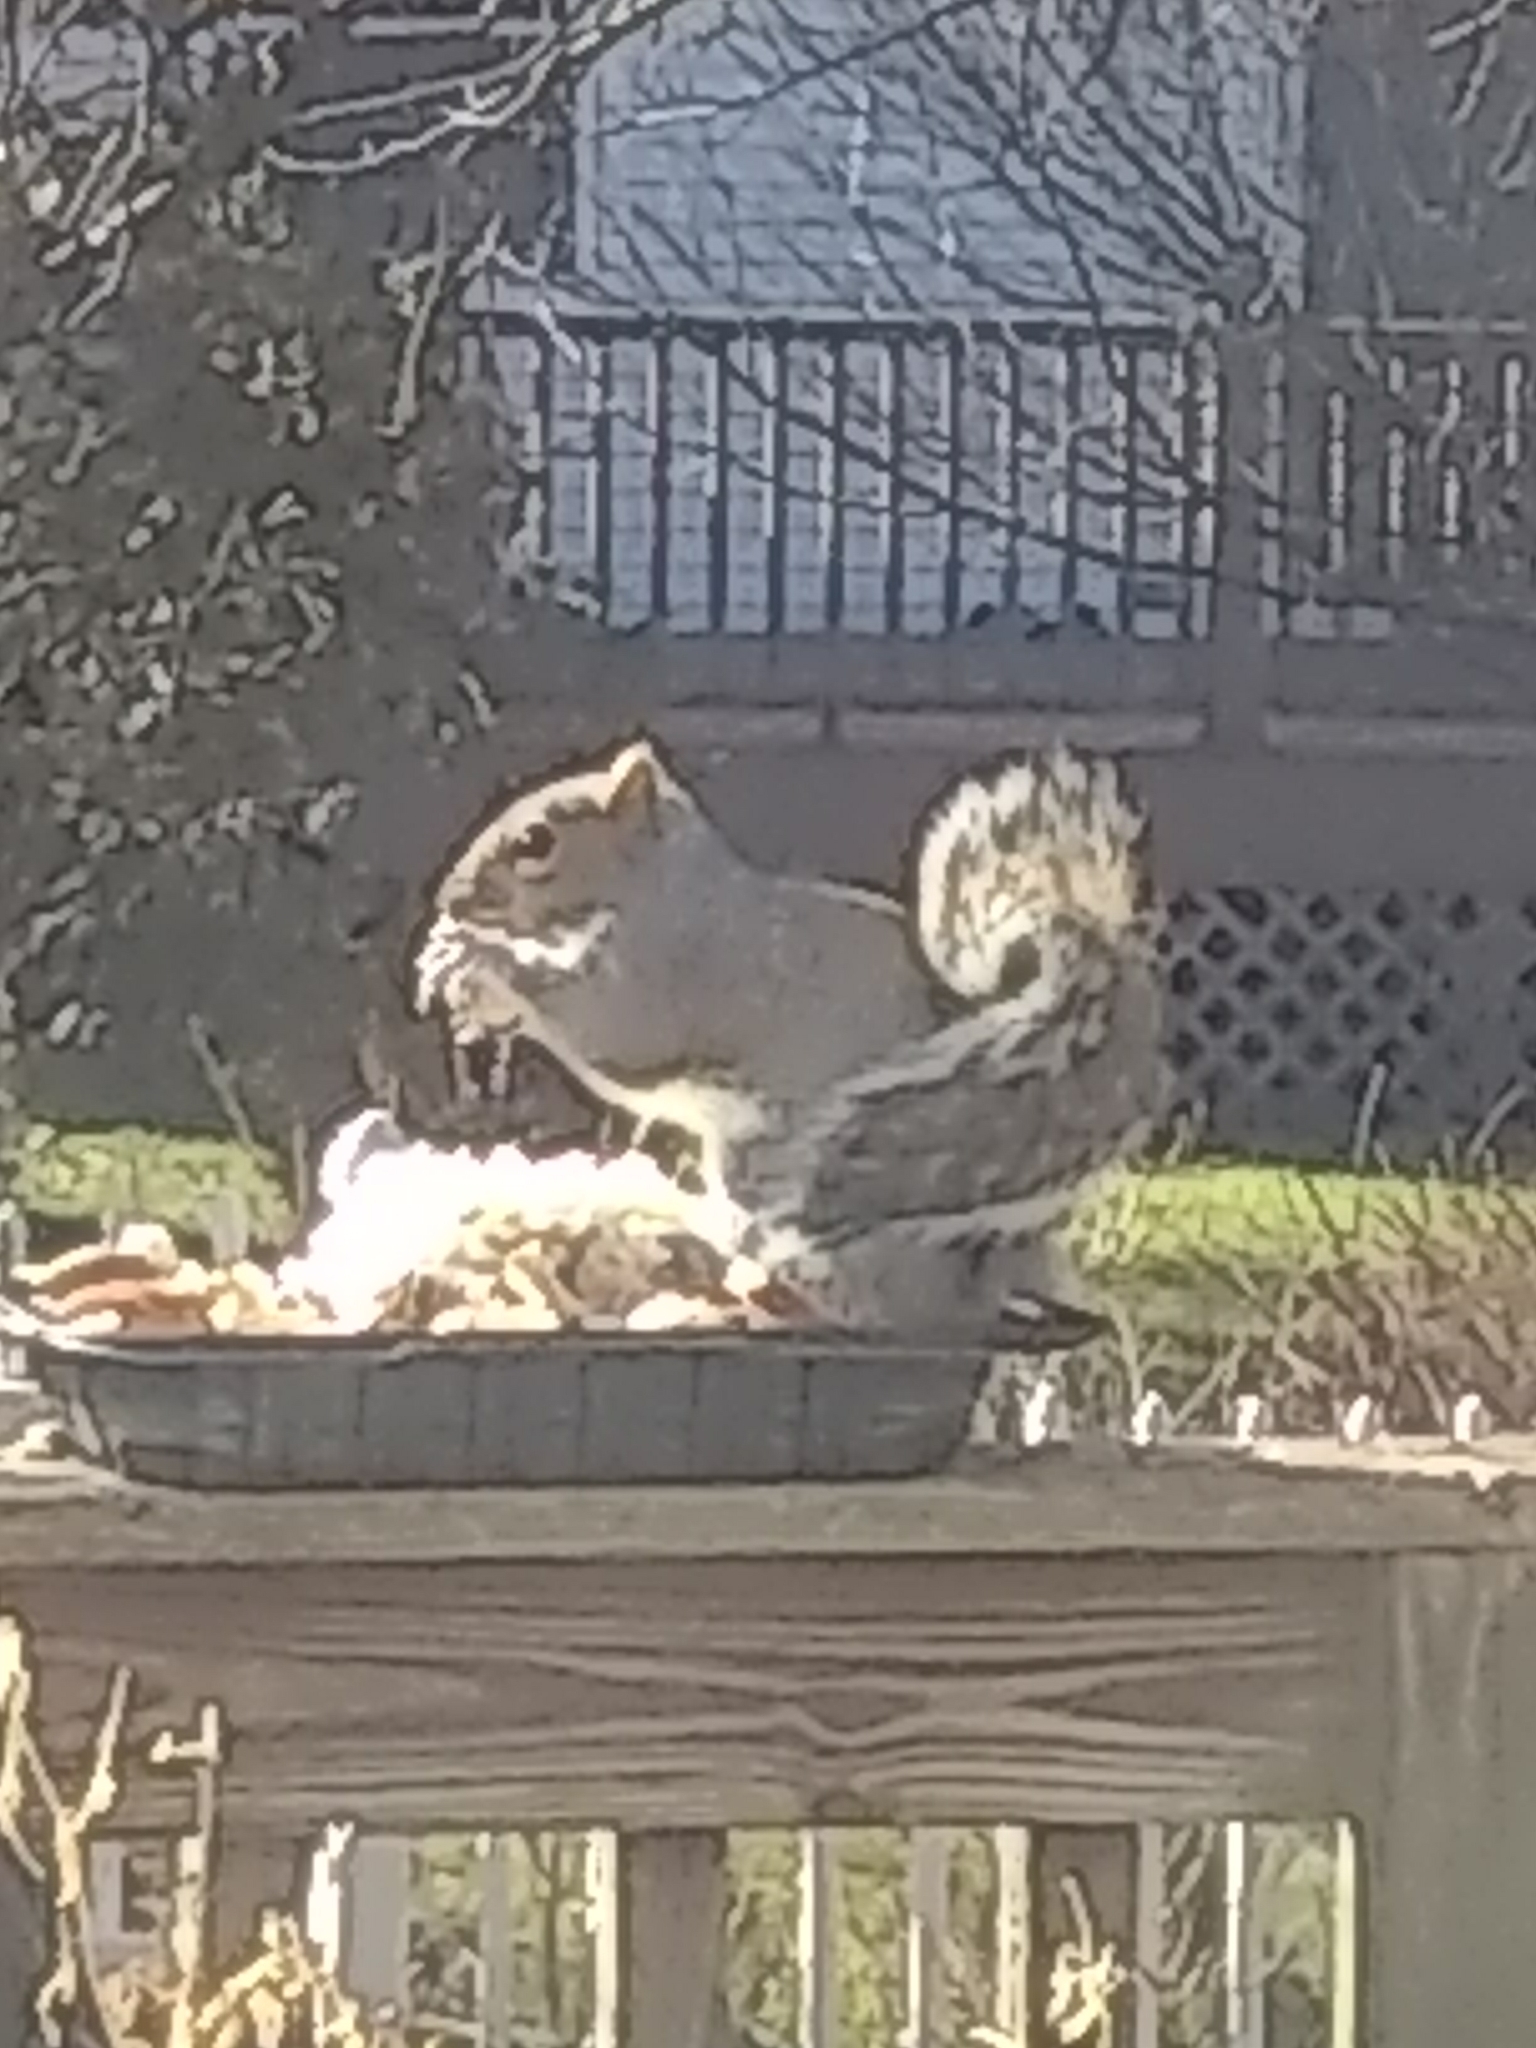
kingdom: Animalia
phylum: Chordata
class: Mammalia
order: Rodentia
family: Sciuridae
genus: Sciurus
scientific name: Sciurus carolinensis
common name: Eastern gray squirrel
